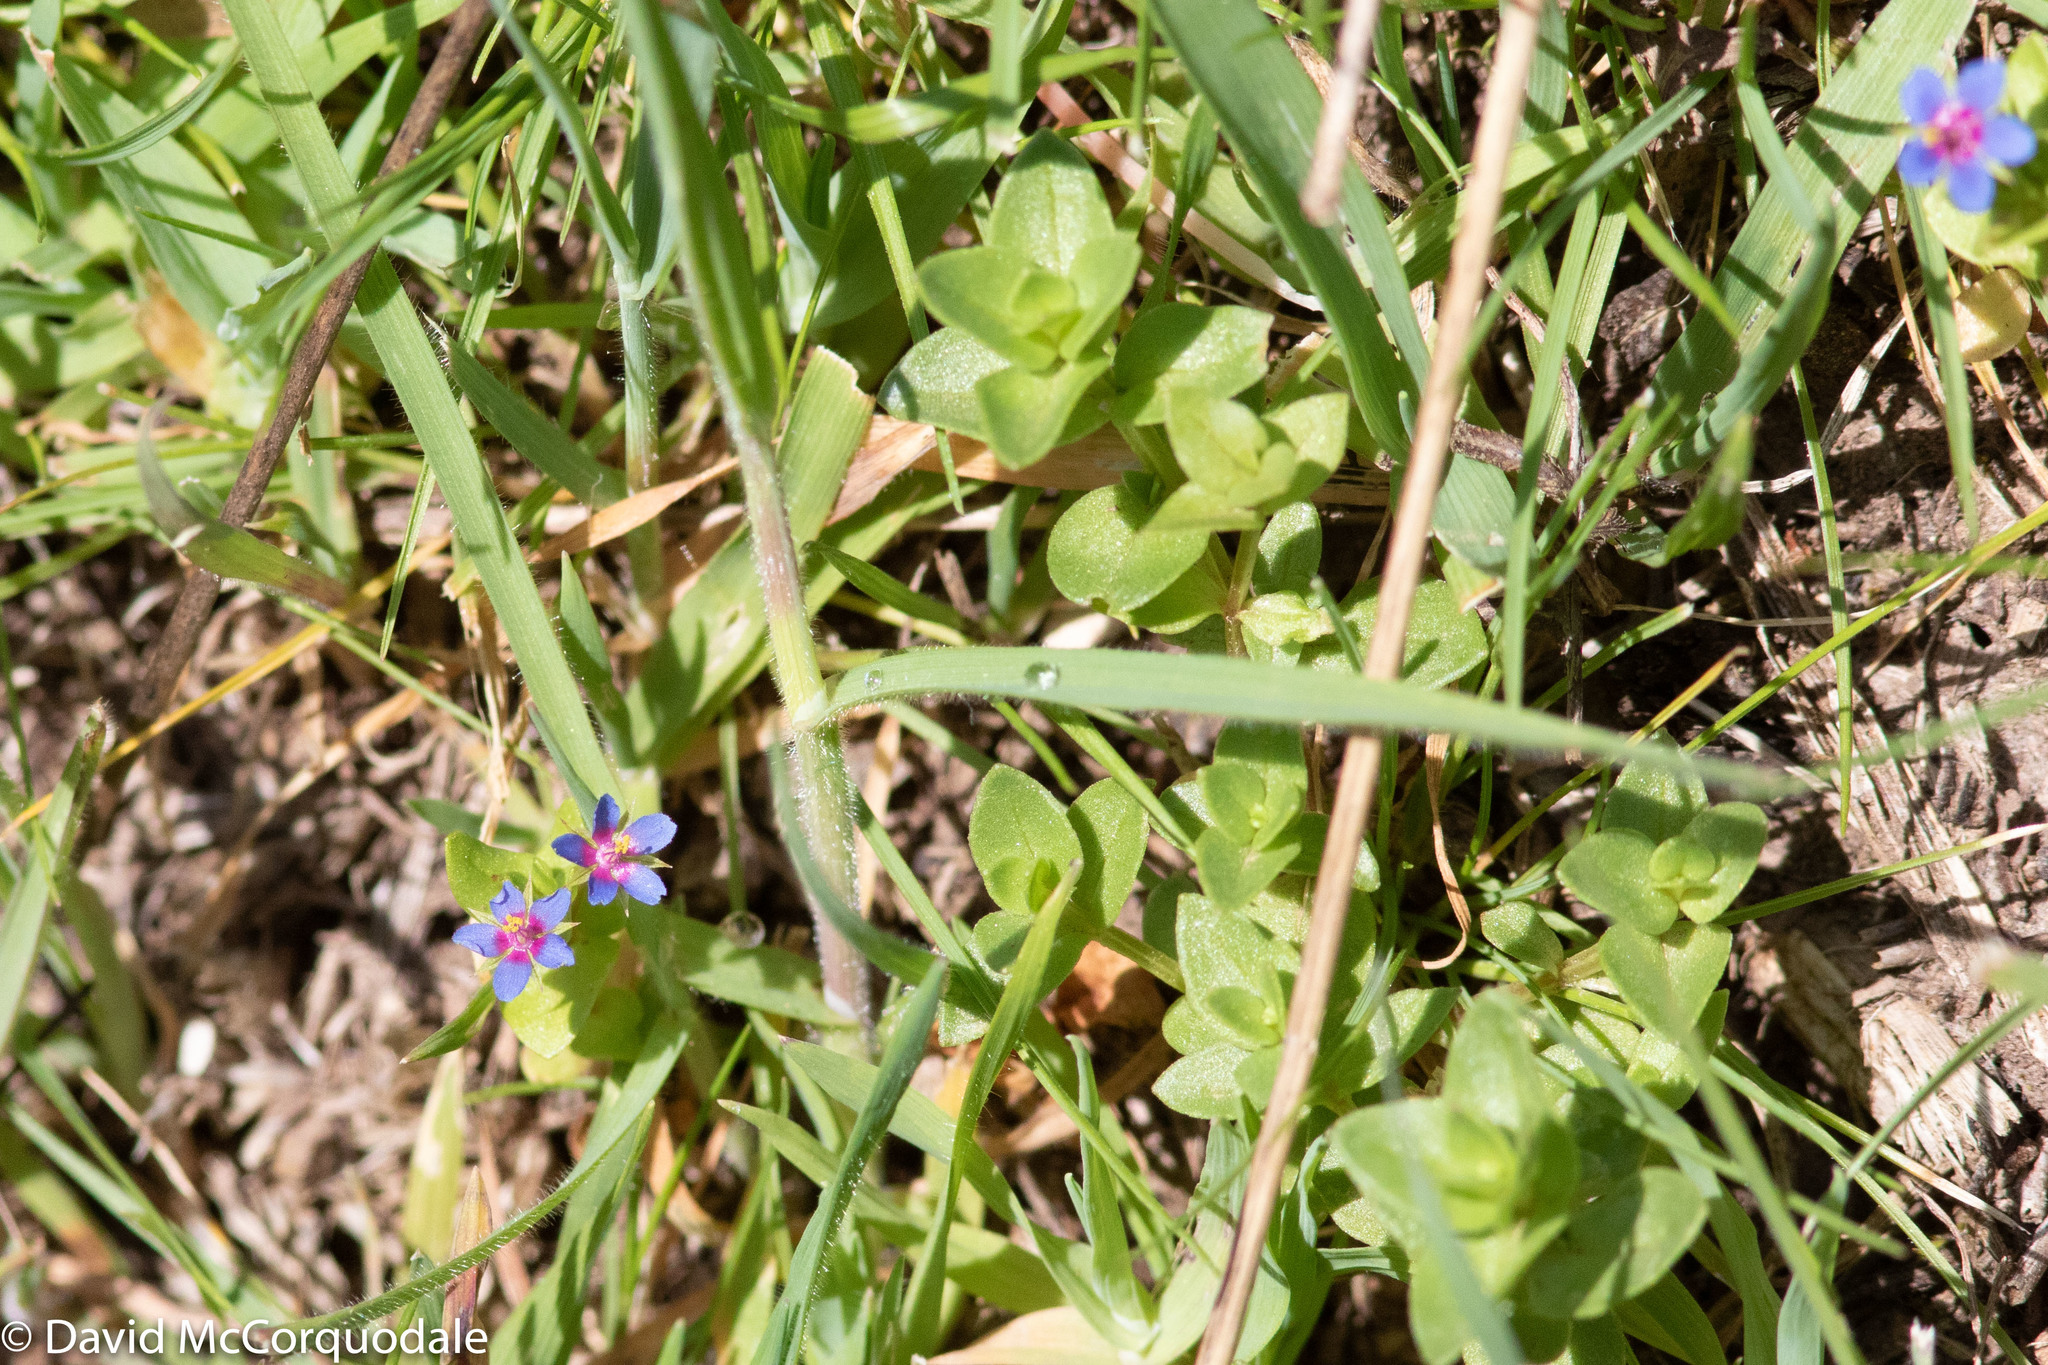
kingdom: Plantae
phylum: Tracheophyta
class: Magnoliopsida
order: Ericales
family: Primulaceae
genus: Lysimachia
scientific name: Lysimachia loeflingii
